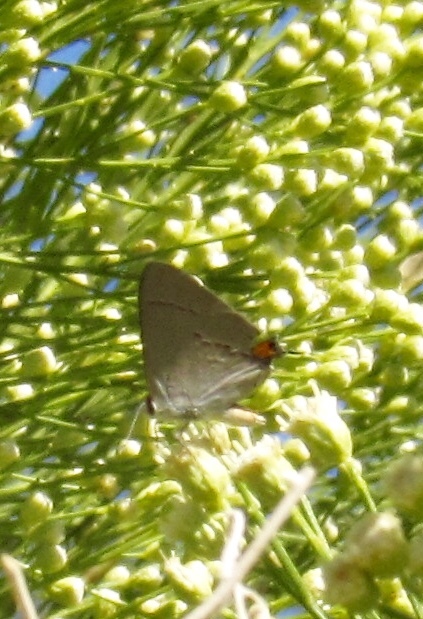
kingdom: Animalia
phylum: Arthropoda
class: Insecta
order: Lepidoptera
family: Lycaenidae
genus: Strymon
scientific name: Strymon melinus
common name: Gray hairstreak
